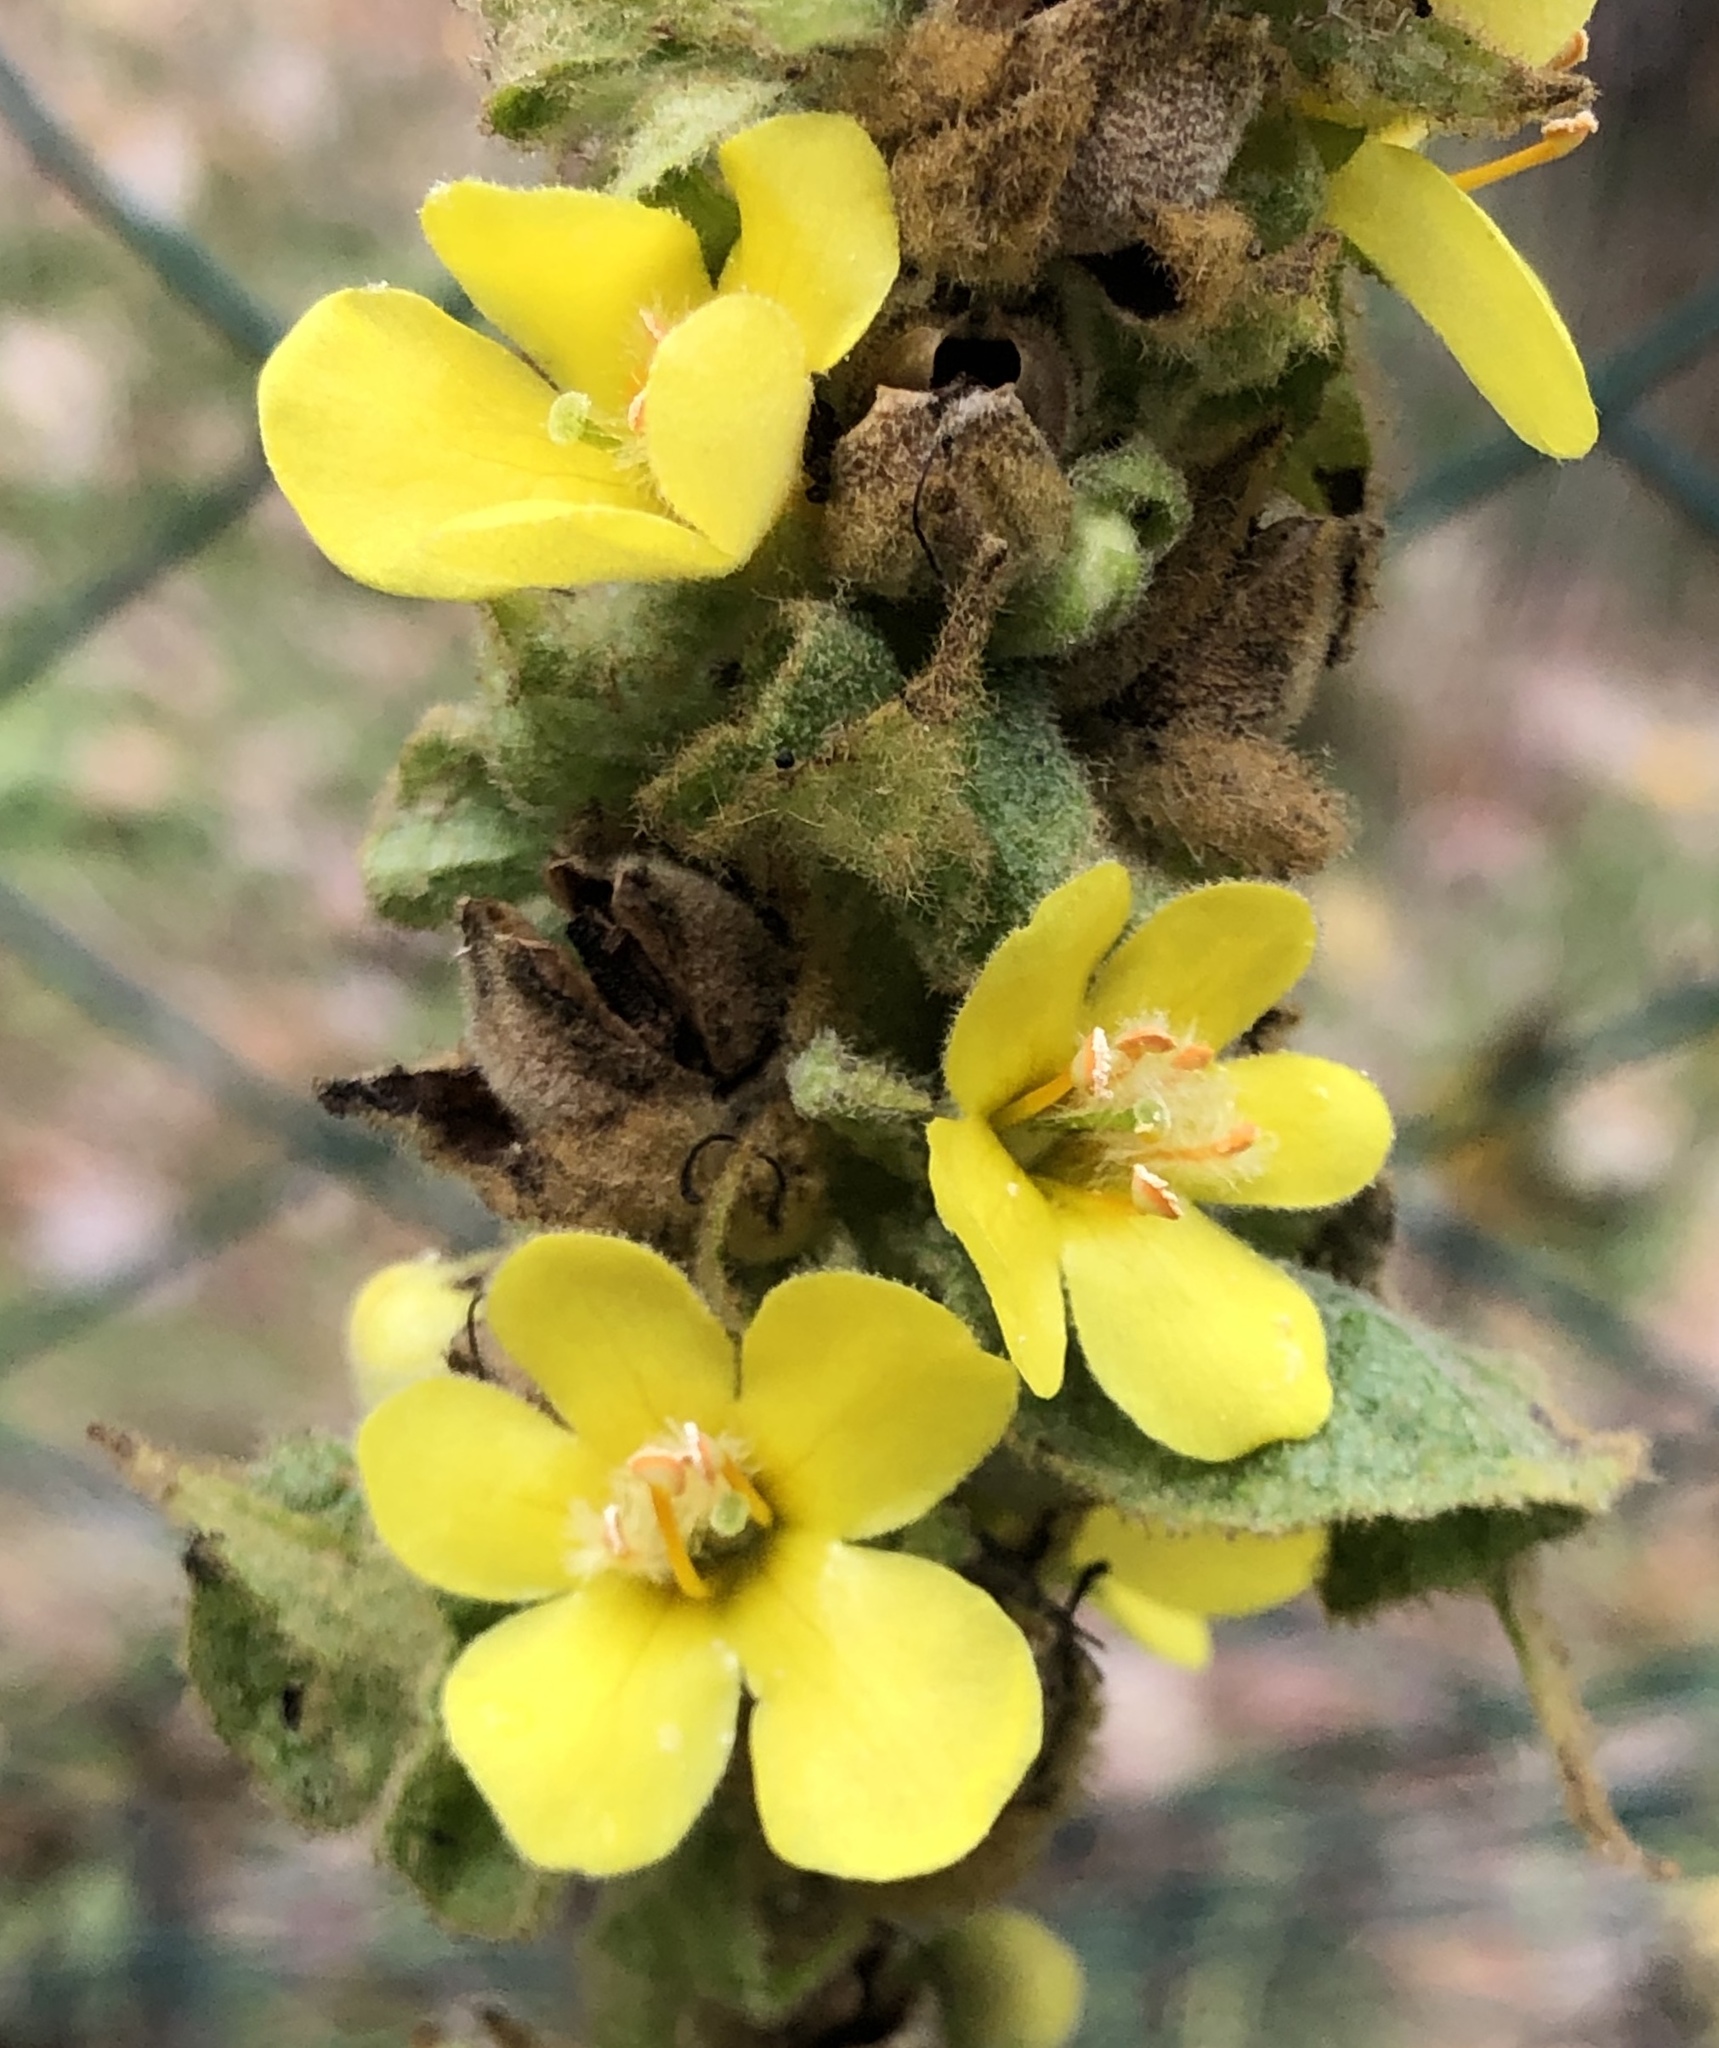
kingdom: Plantae
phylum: Tracheophyta
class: Magnoliopsida
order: Lamiales
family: Scrophulariaceae
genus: Verbascum
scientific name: Verbascum thapsus
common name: Common mullein
